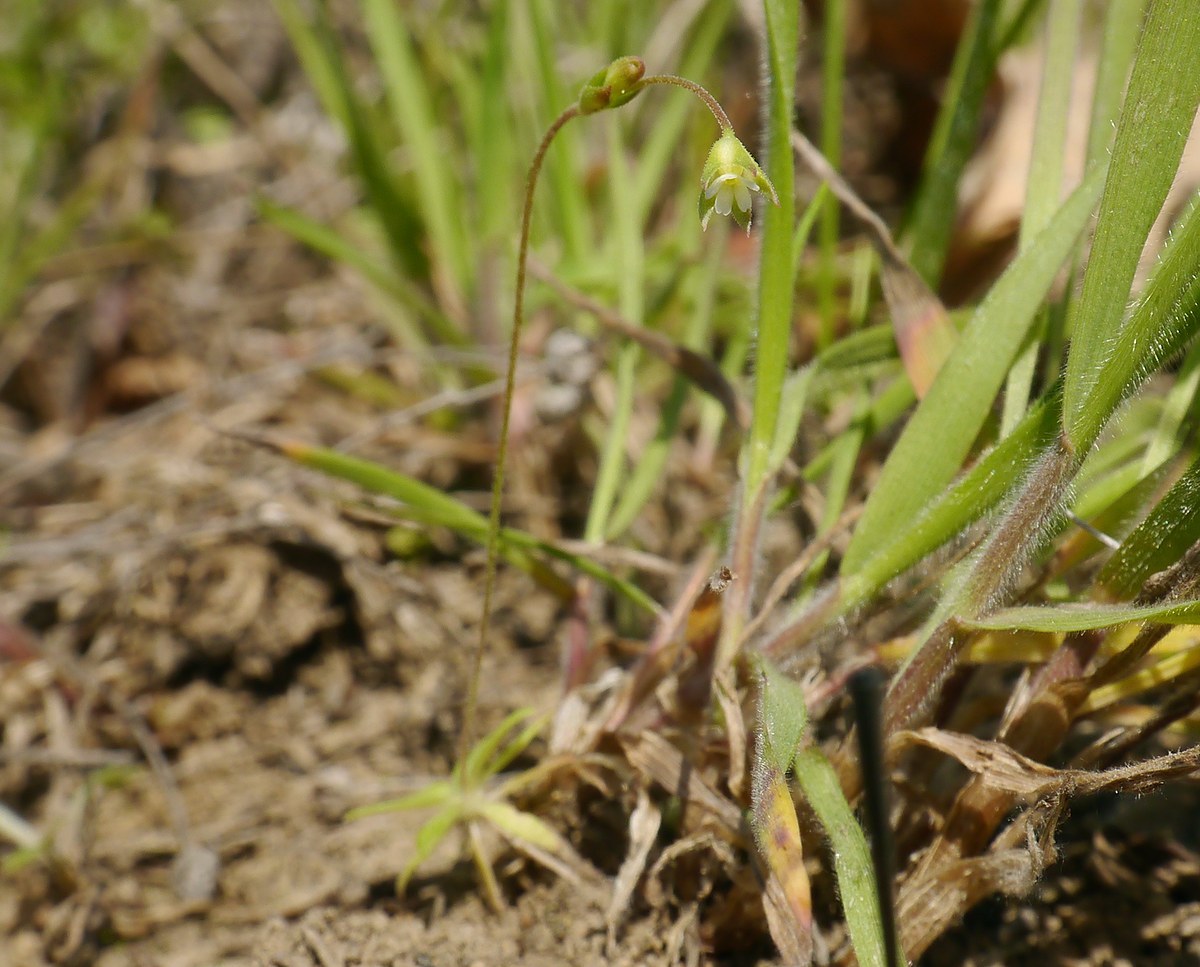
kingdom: Plantae
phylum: Tracheophyta
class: Magnoliopsida
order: Ericales
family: Primulaceae
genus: Androsace
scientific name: Androsace elongata
